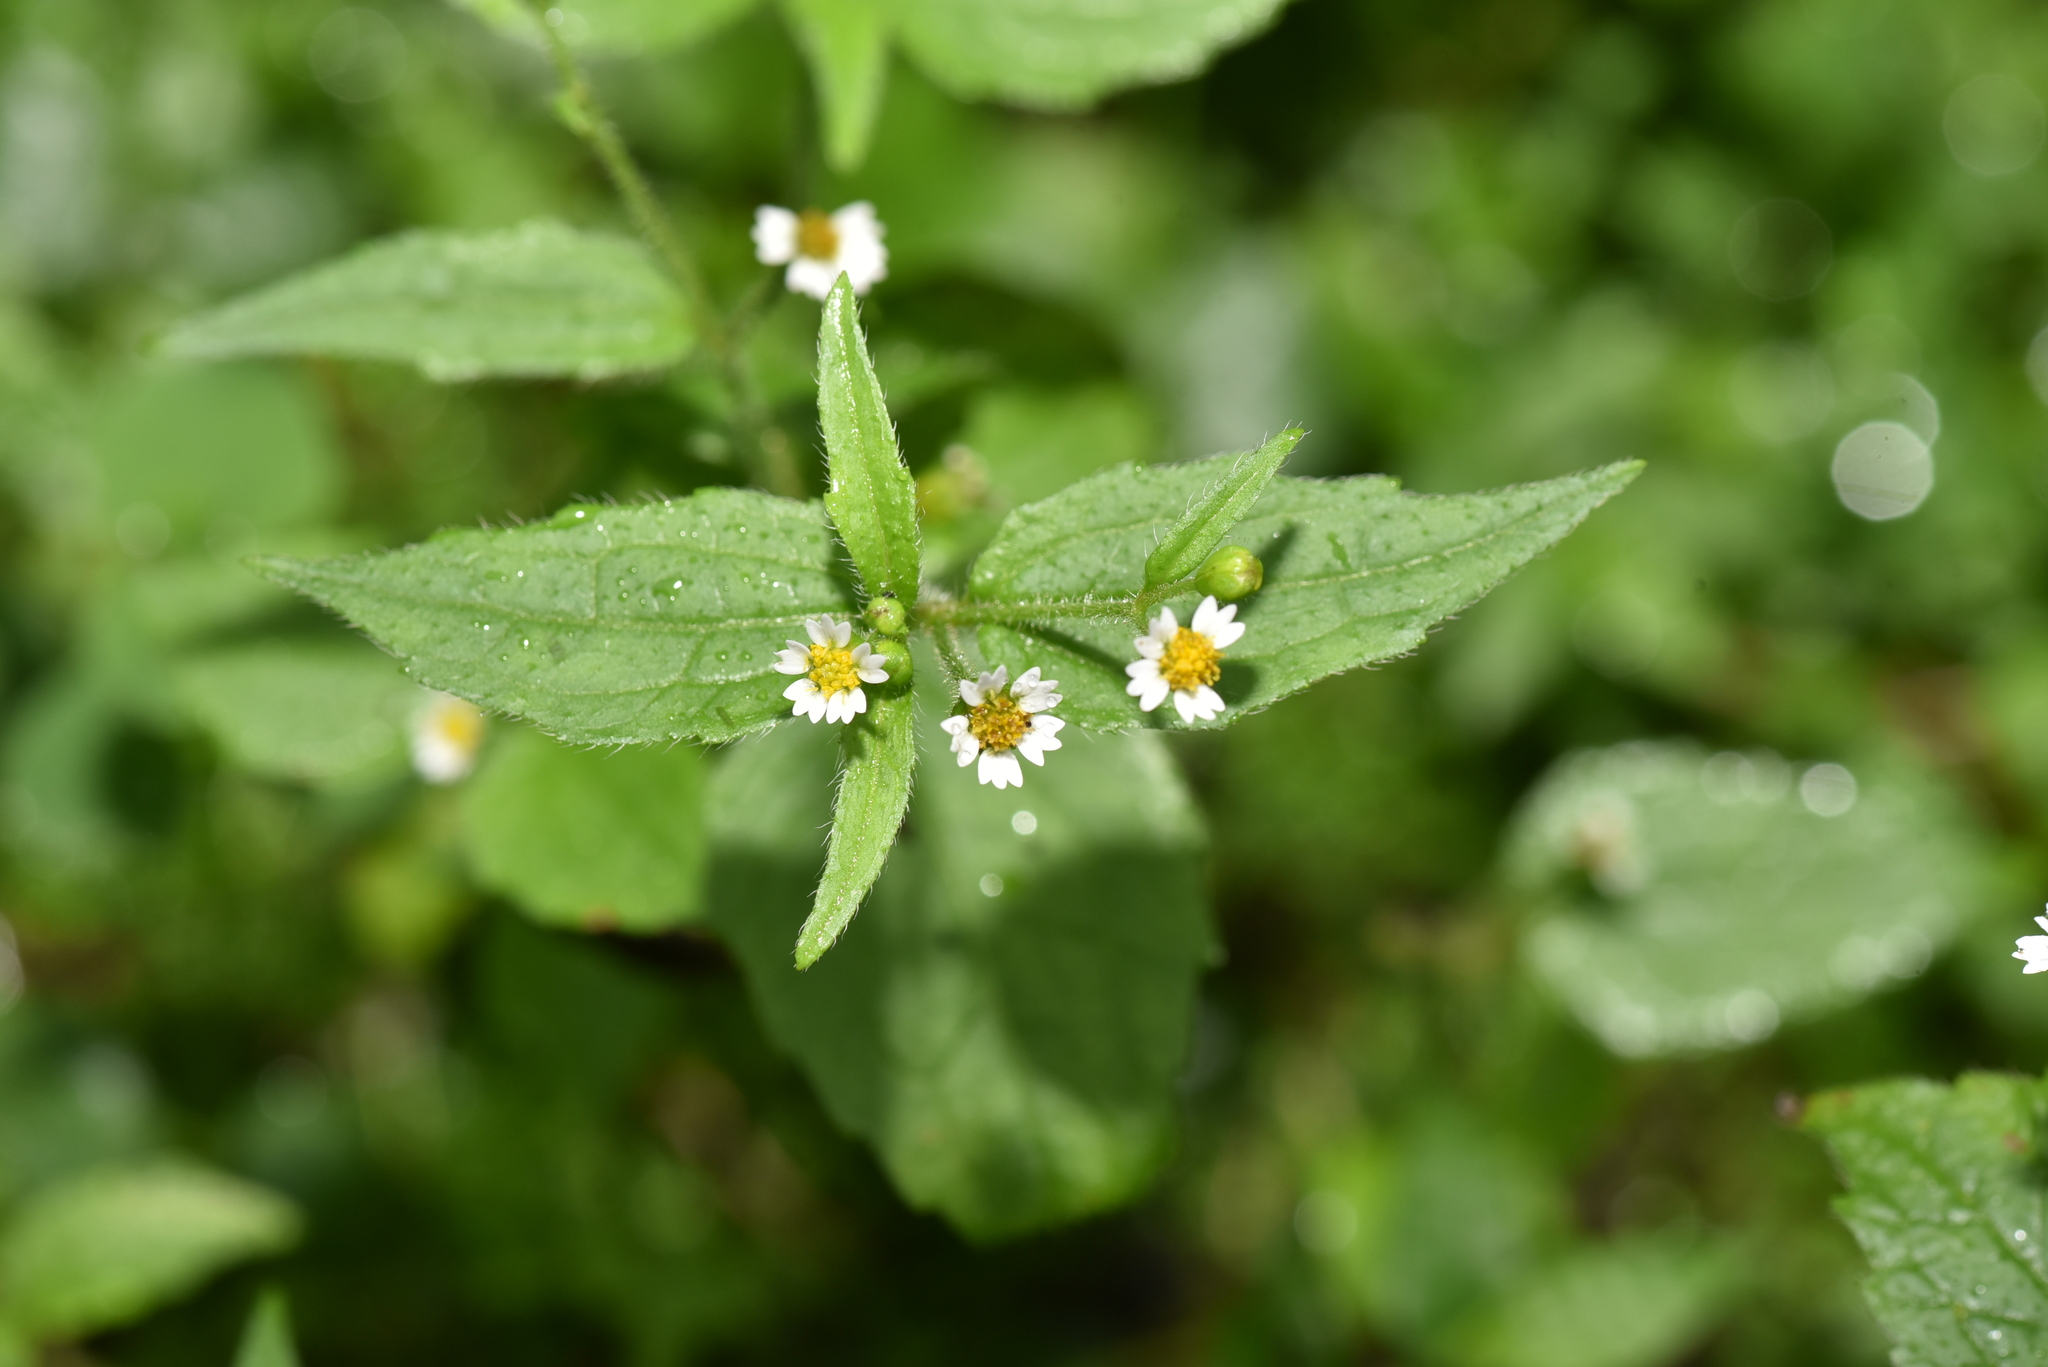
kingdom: Plantae
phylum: Tracheophyta
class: Magnoliopsida
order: Asterales
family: Asteraceae
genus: Galinsoga
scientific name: Galinsoga quadriradiata
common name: Shaggy soldier
